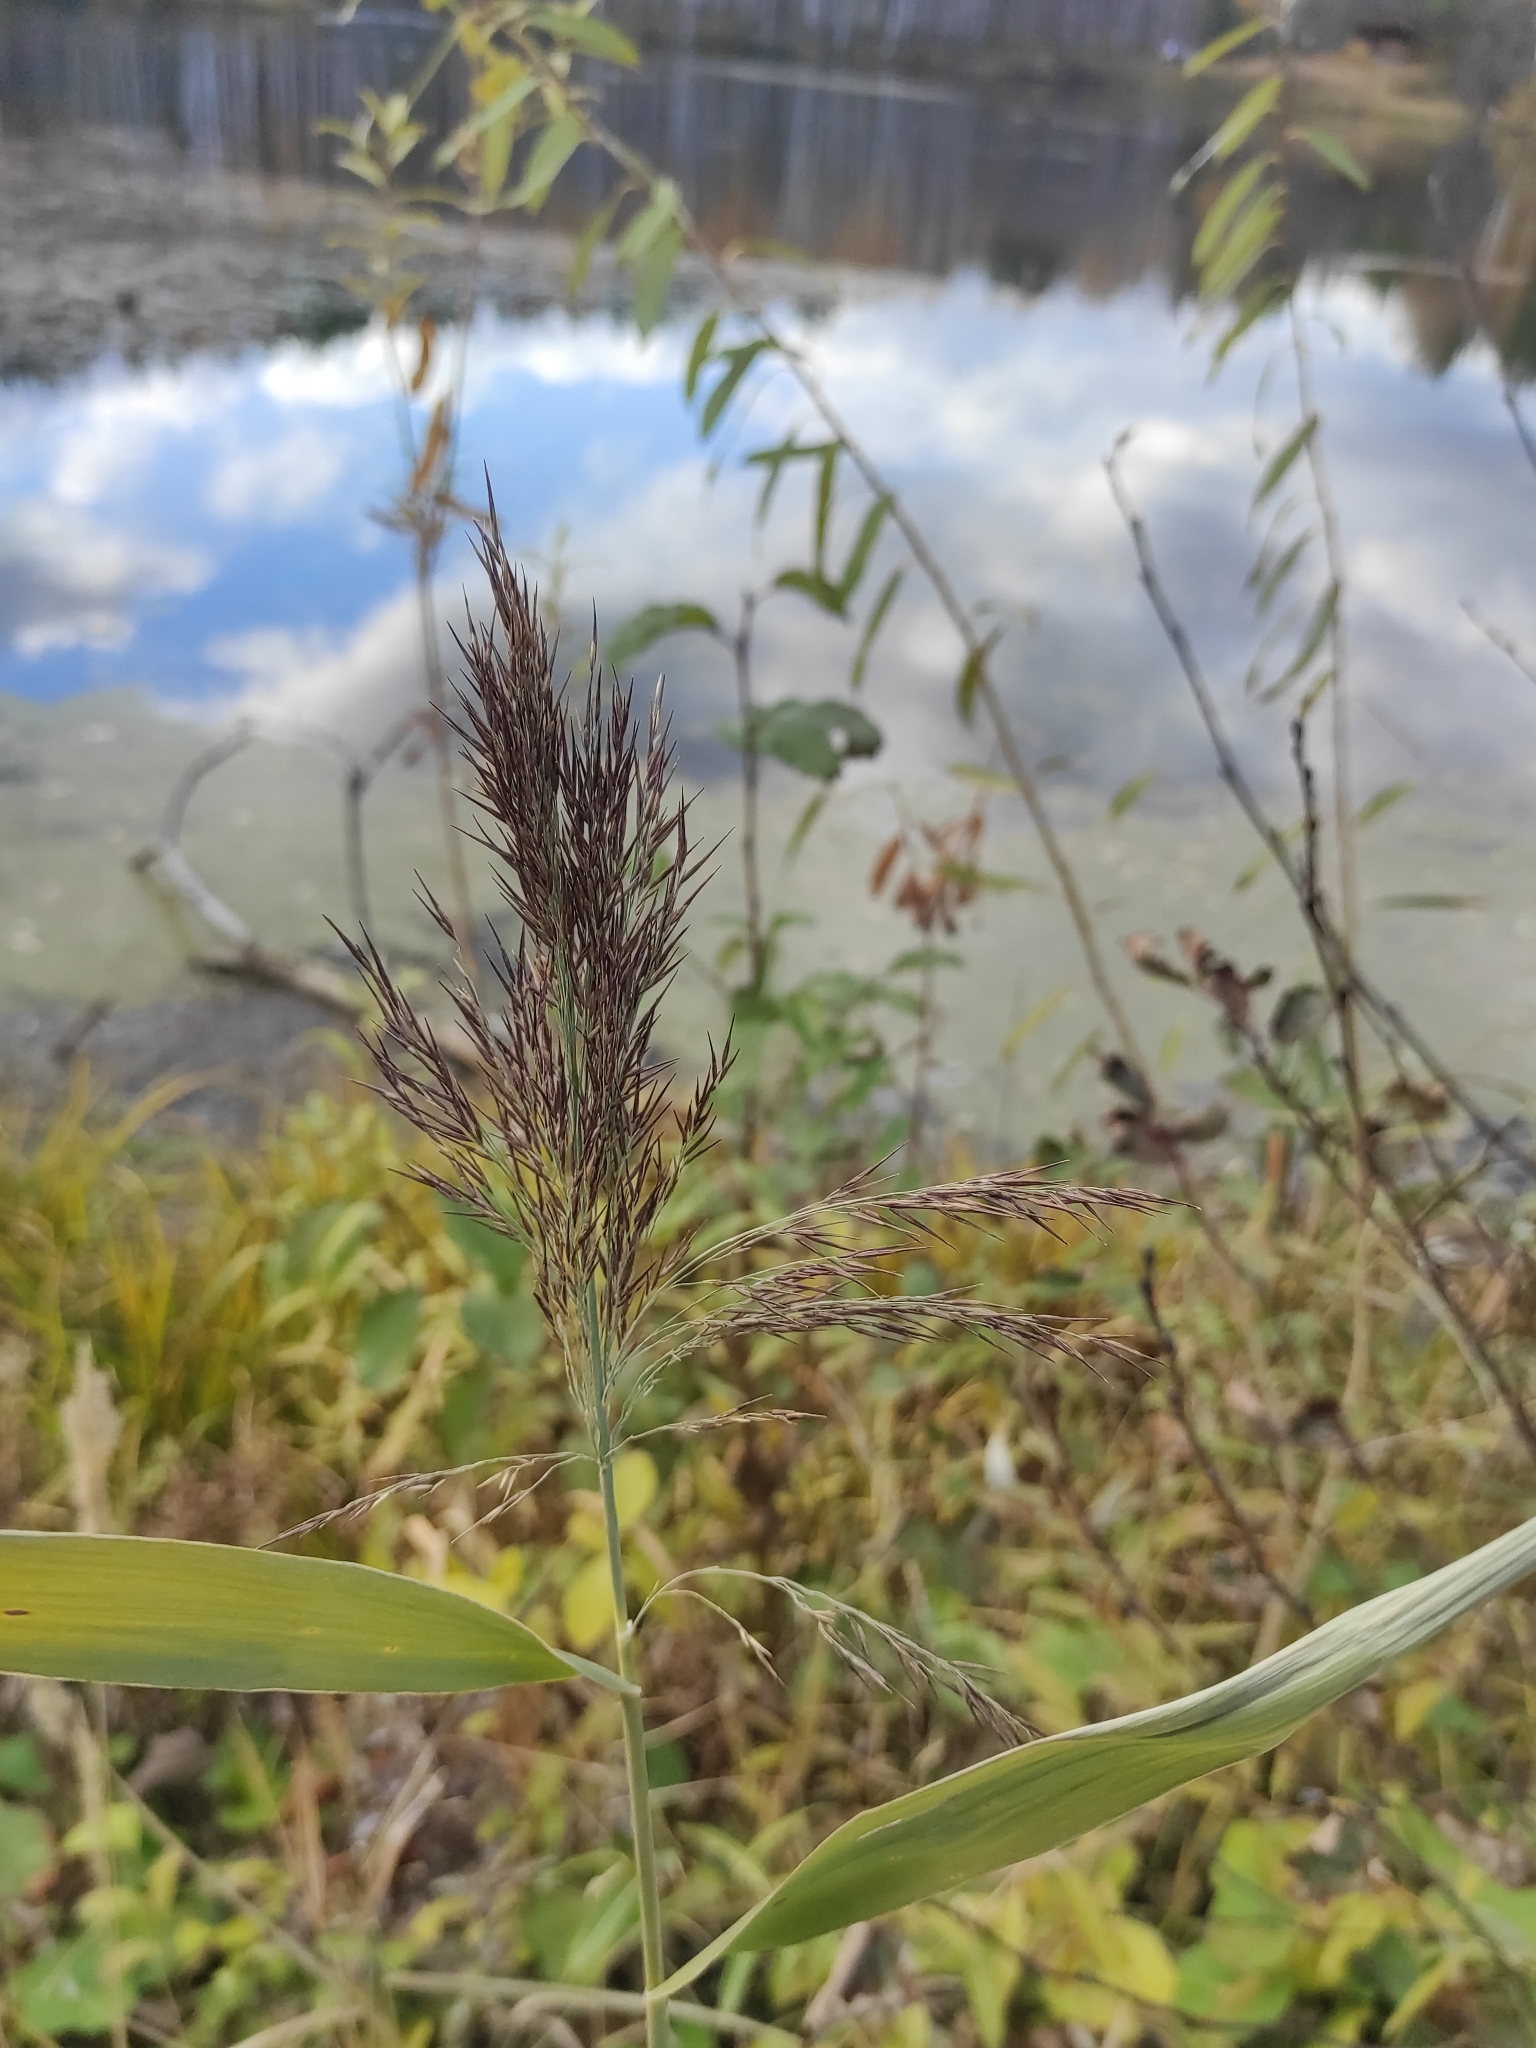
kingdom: Plantae
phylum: Tracheophyta
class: Liliopsida
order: Poales
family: Poaceae
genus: Phragmites
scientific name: Phragmites australis
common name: Common reed
